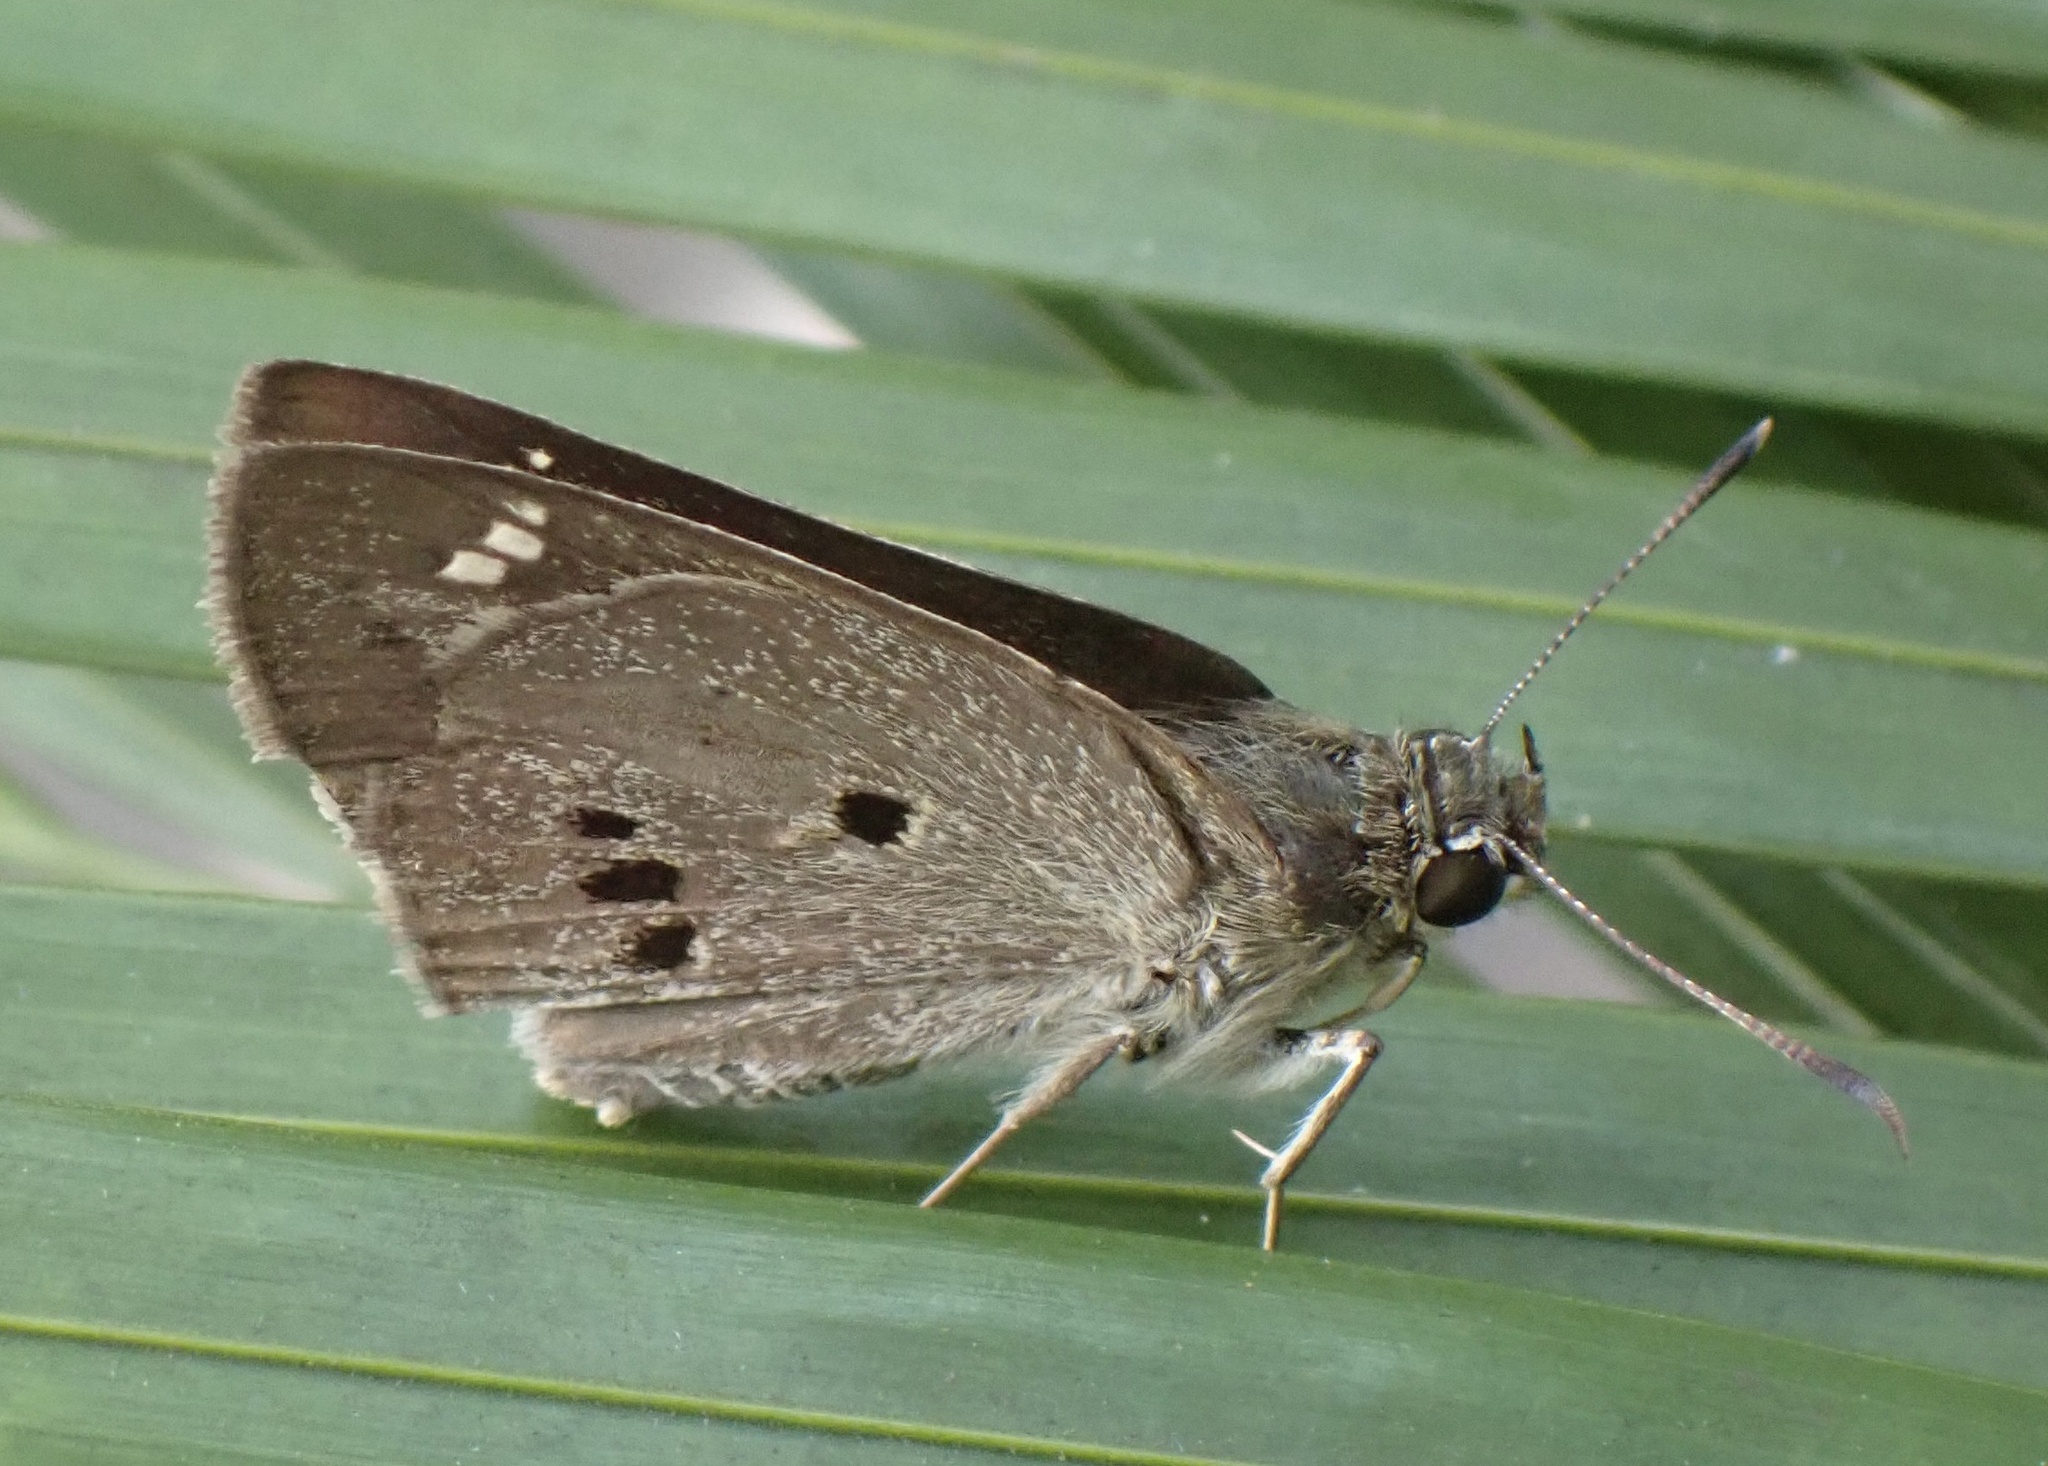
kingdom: Animalia
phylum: Arthropoda
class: Insecta
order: Lepidoptera
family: Hesperiidae
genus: Suastus
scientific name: Suastus gremius
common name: Indian palm bob
